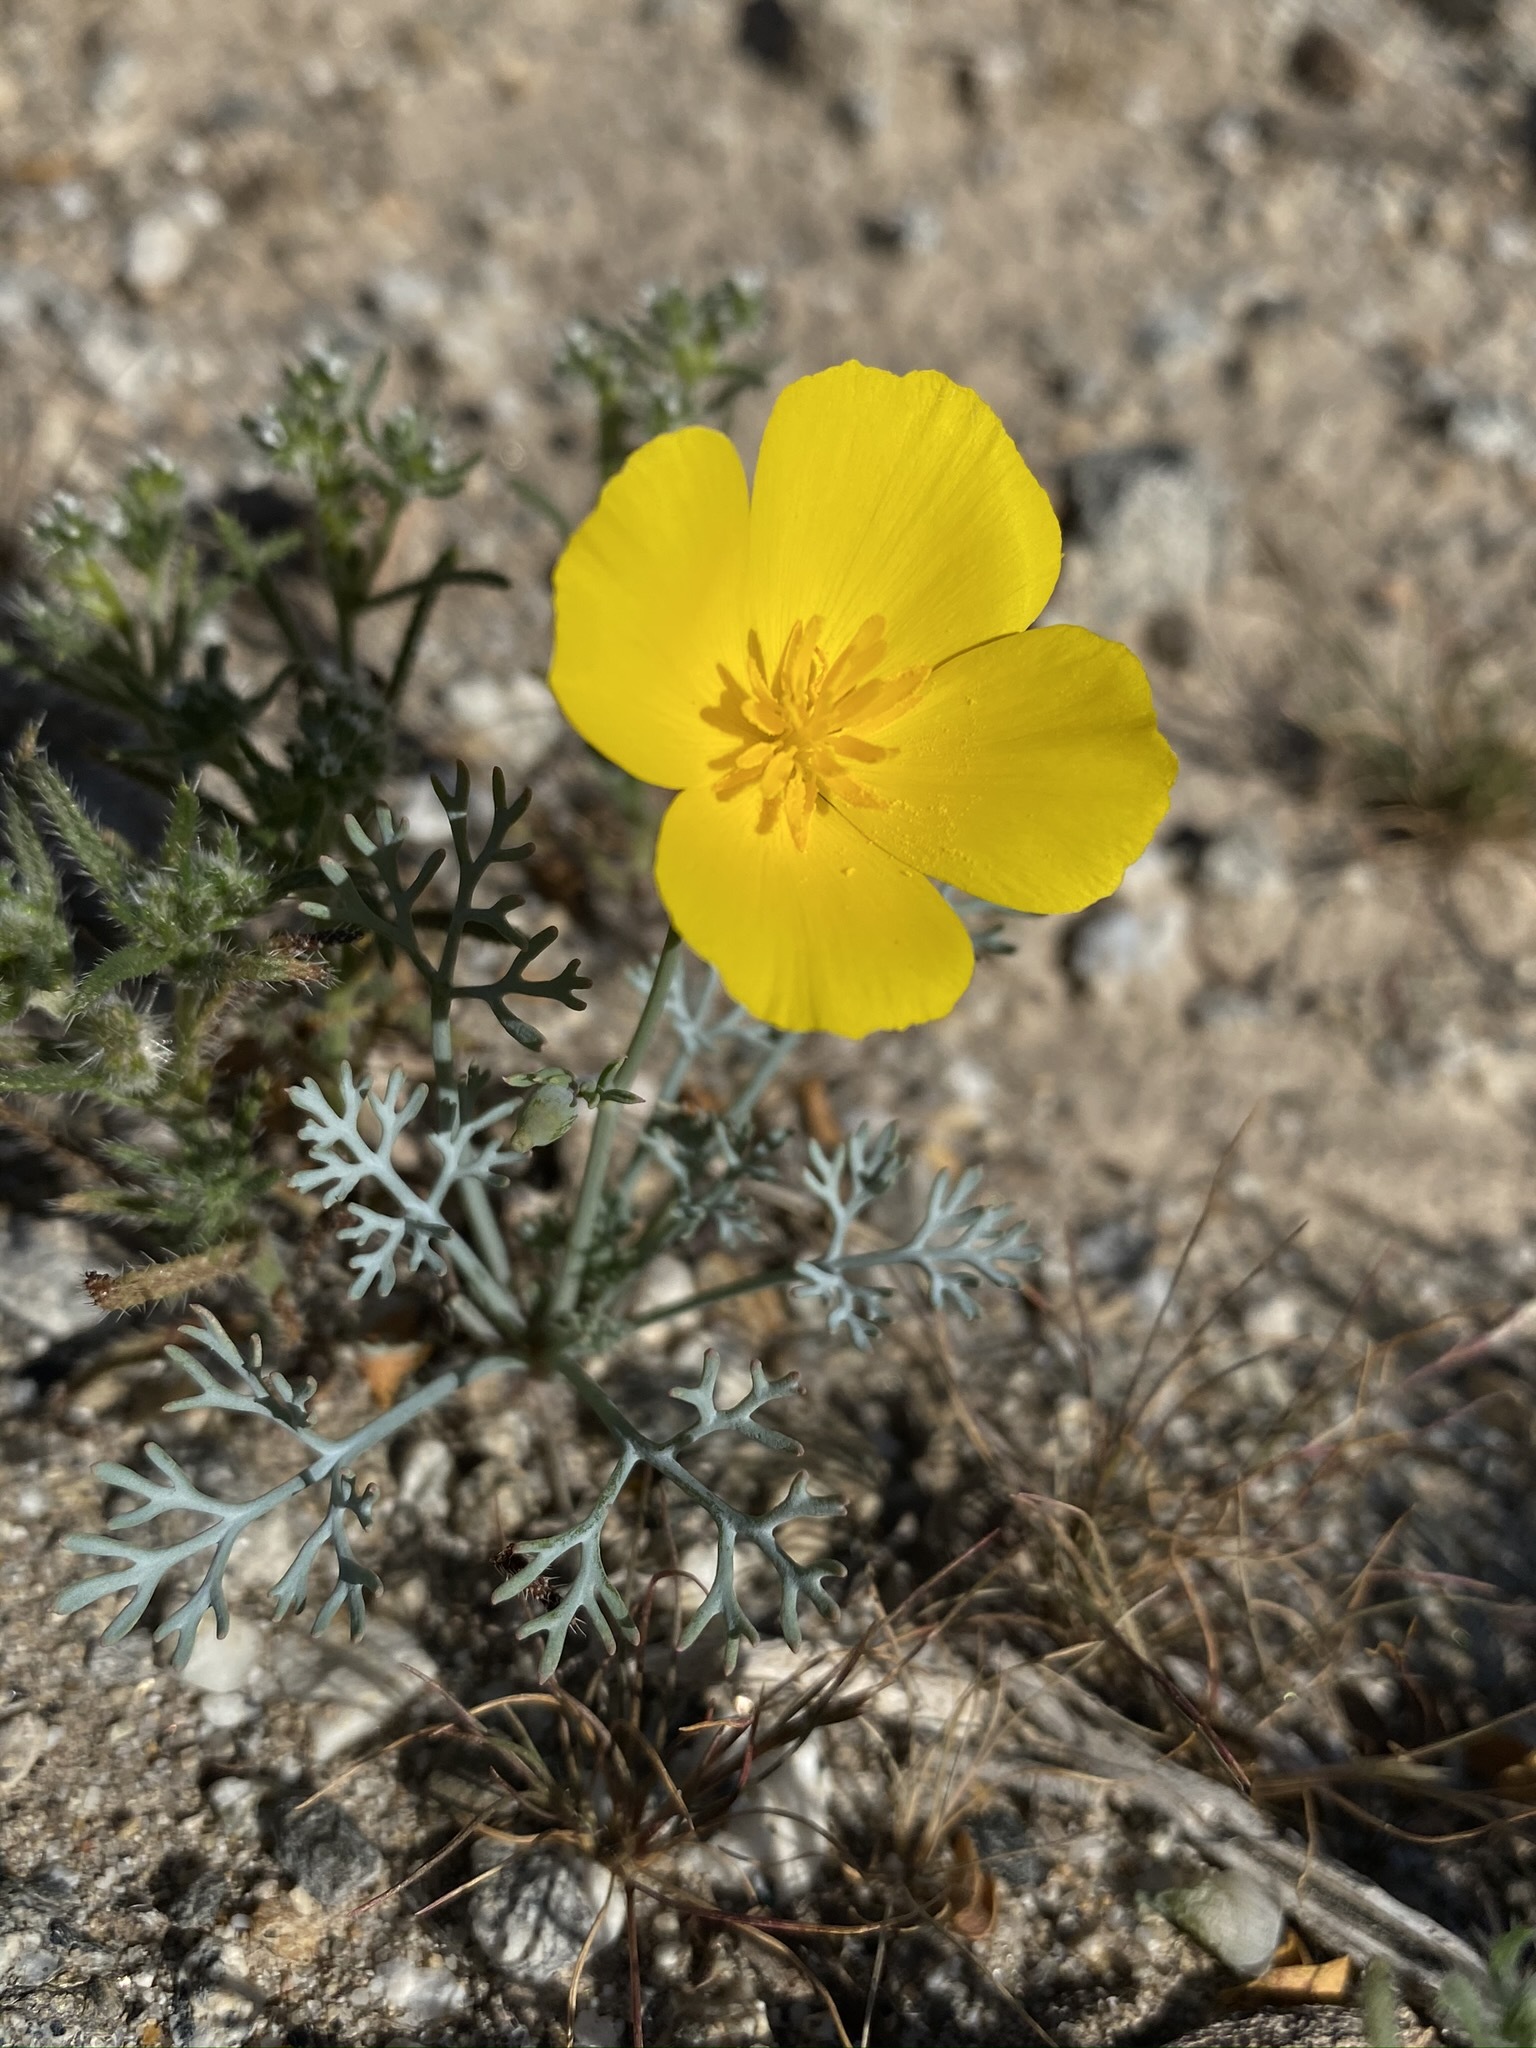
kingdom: Plantae
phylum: Tracheophyta
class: Magnoliopsida
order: Ranunculales
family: Papaveraceae
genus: Eschscholzia
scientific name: Eschscholzia parishii
